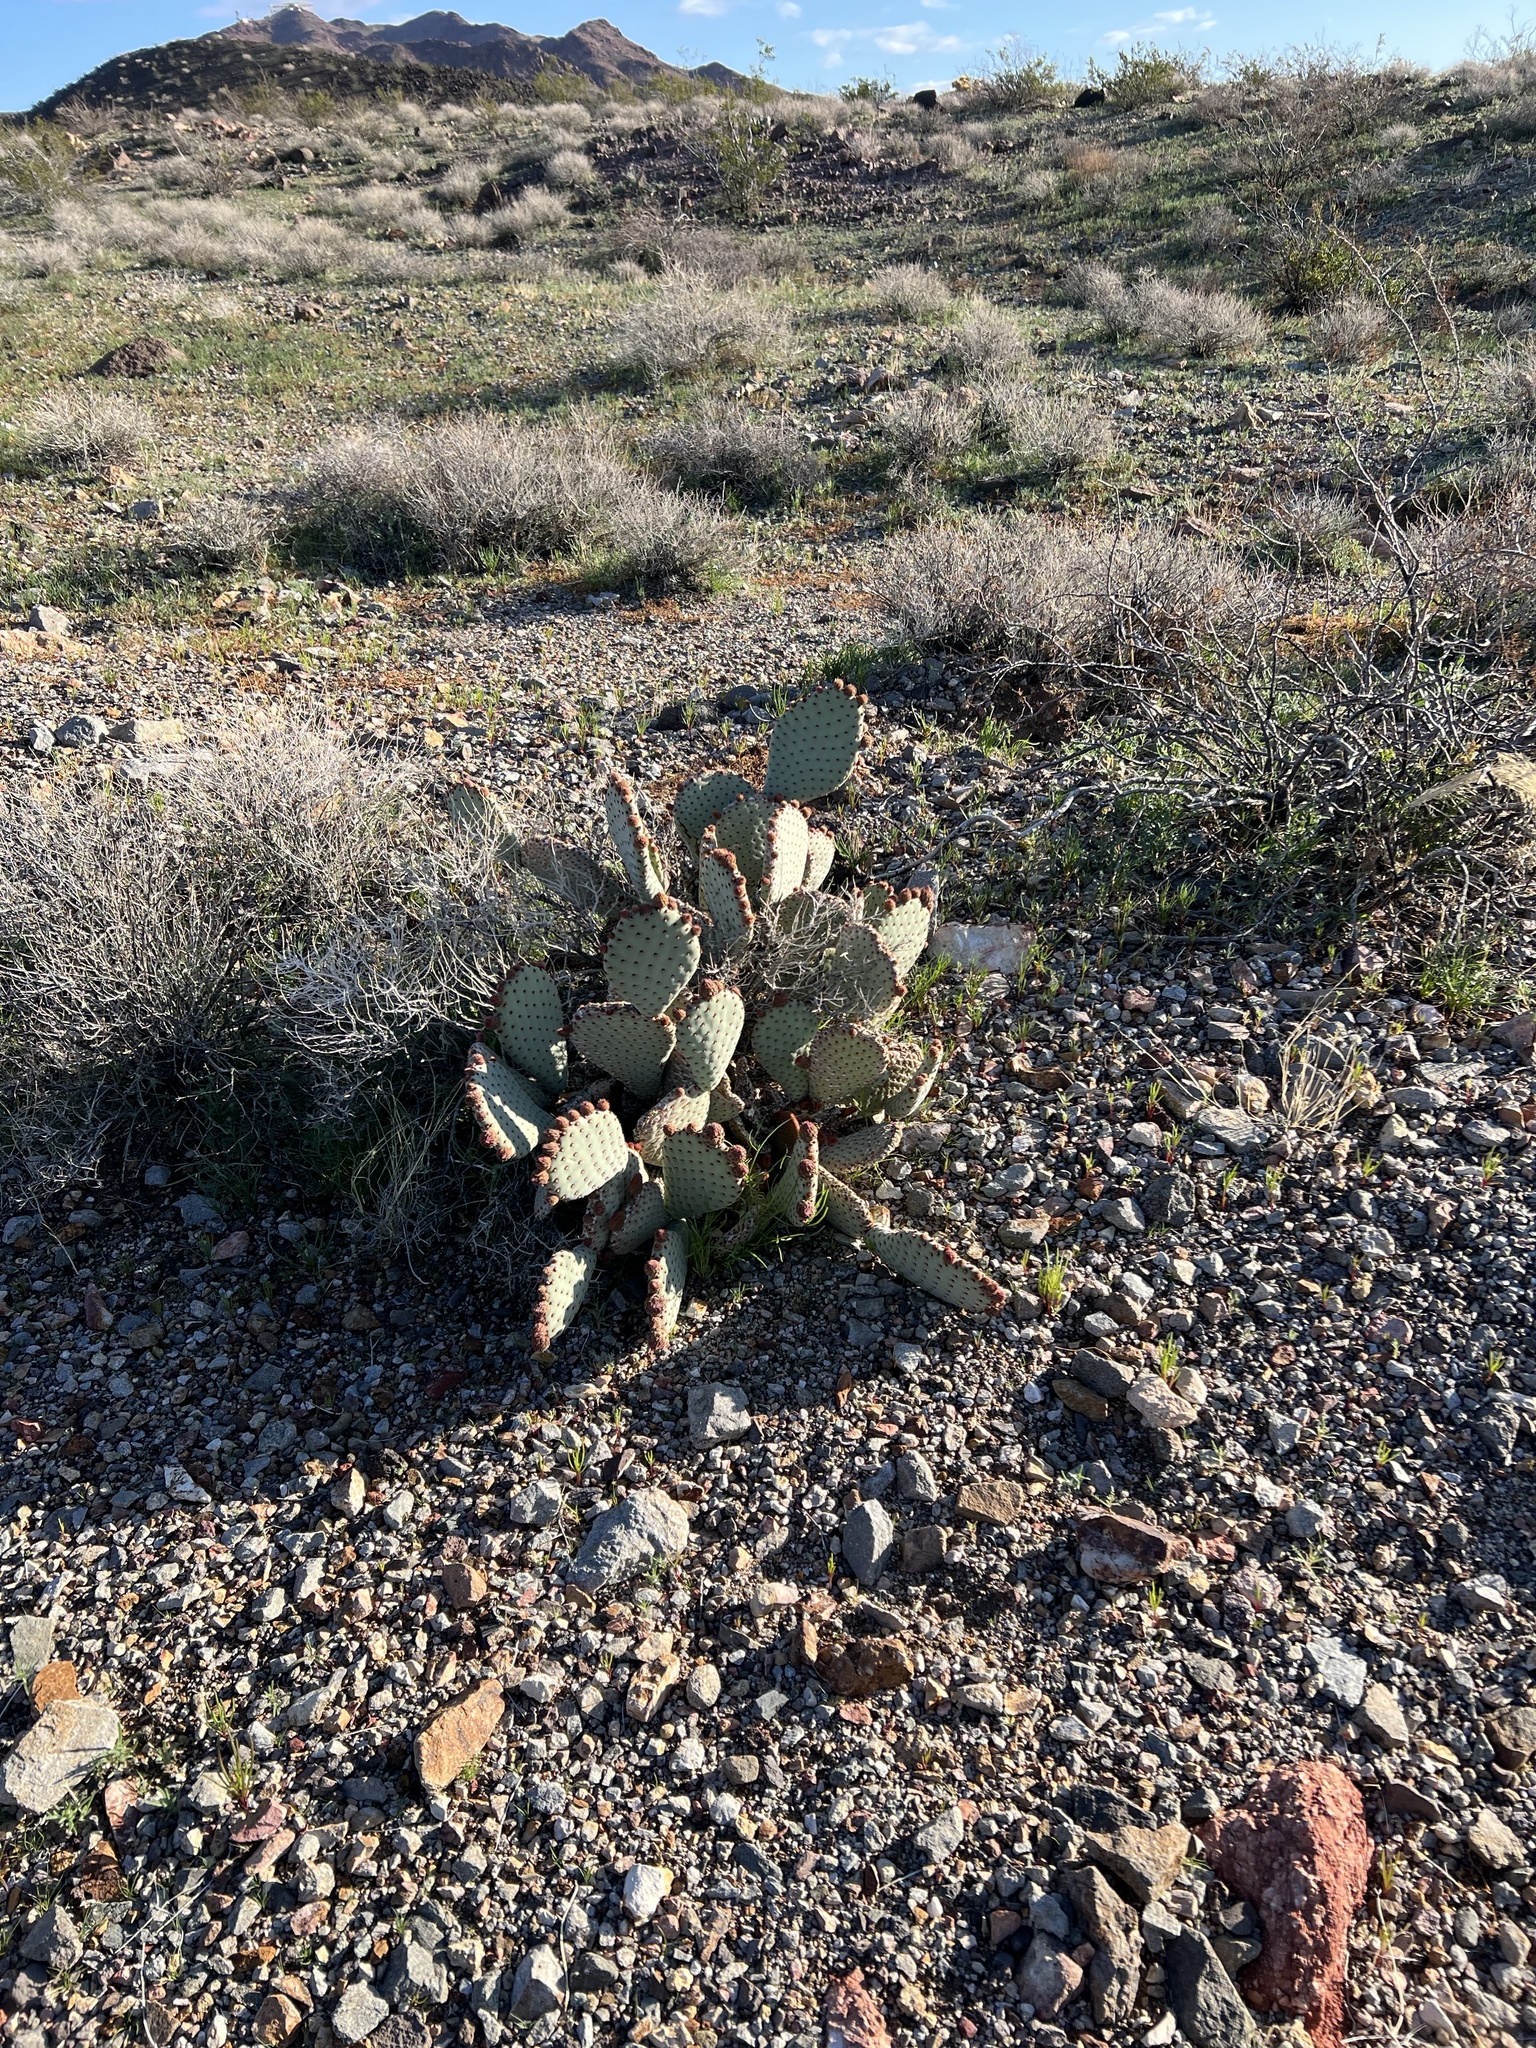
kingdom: Plantae
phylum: Tracheophyta
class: Magnoliopsida
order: Caryophyllales
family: Cactaceae
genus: Opuntia
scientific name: Opuntia basilaris
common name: Beavertail prickly-pear
